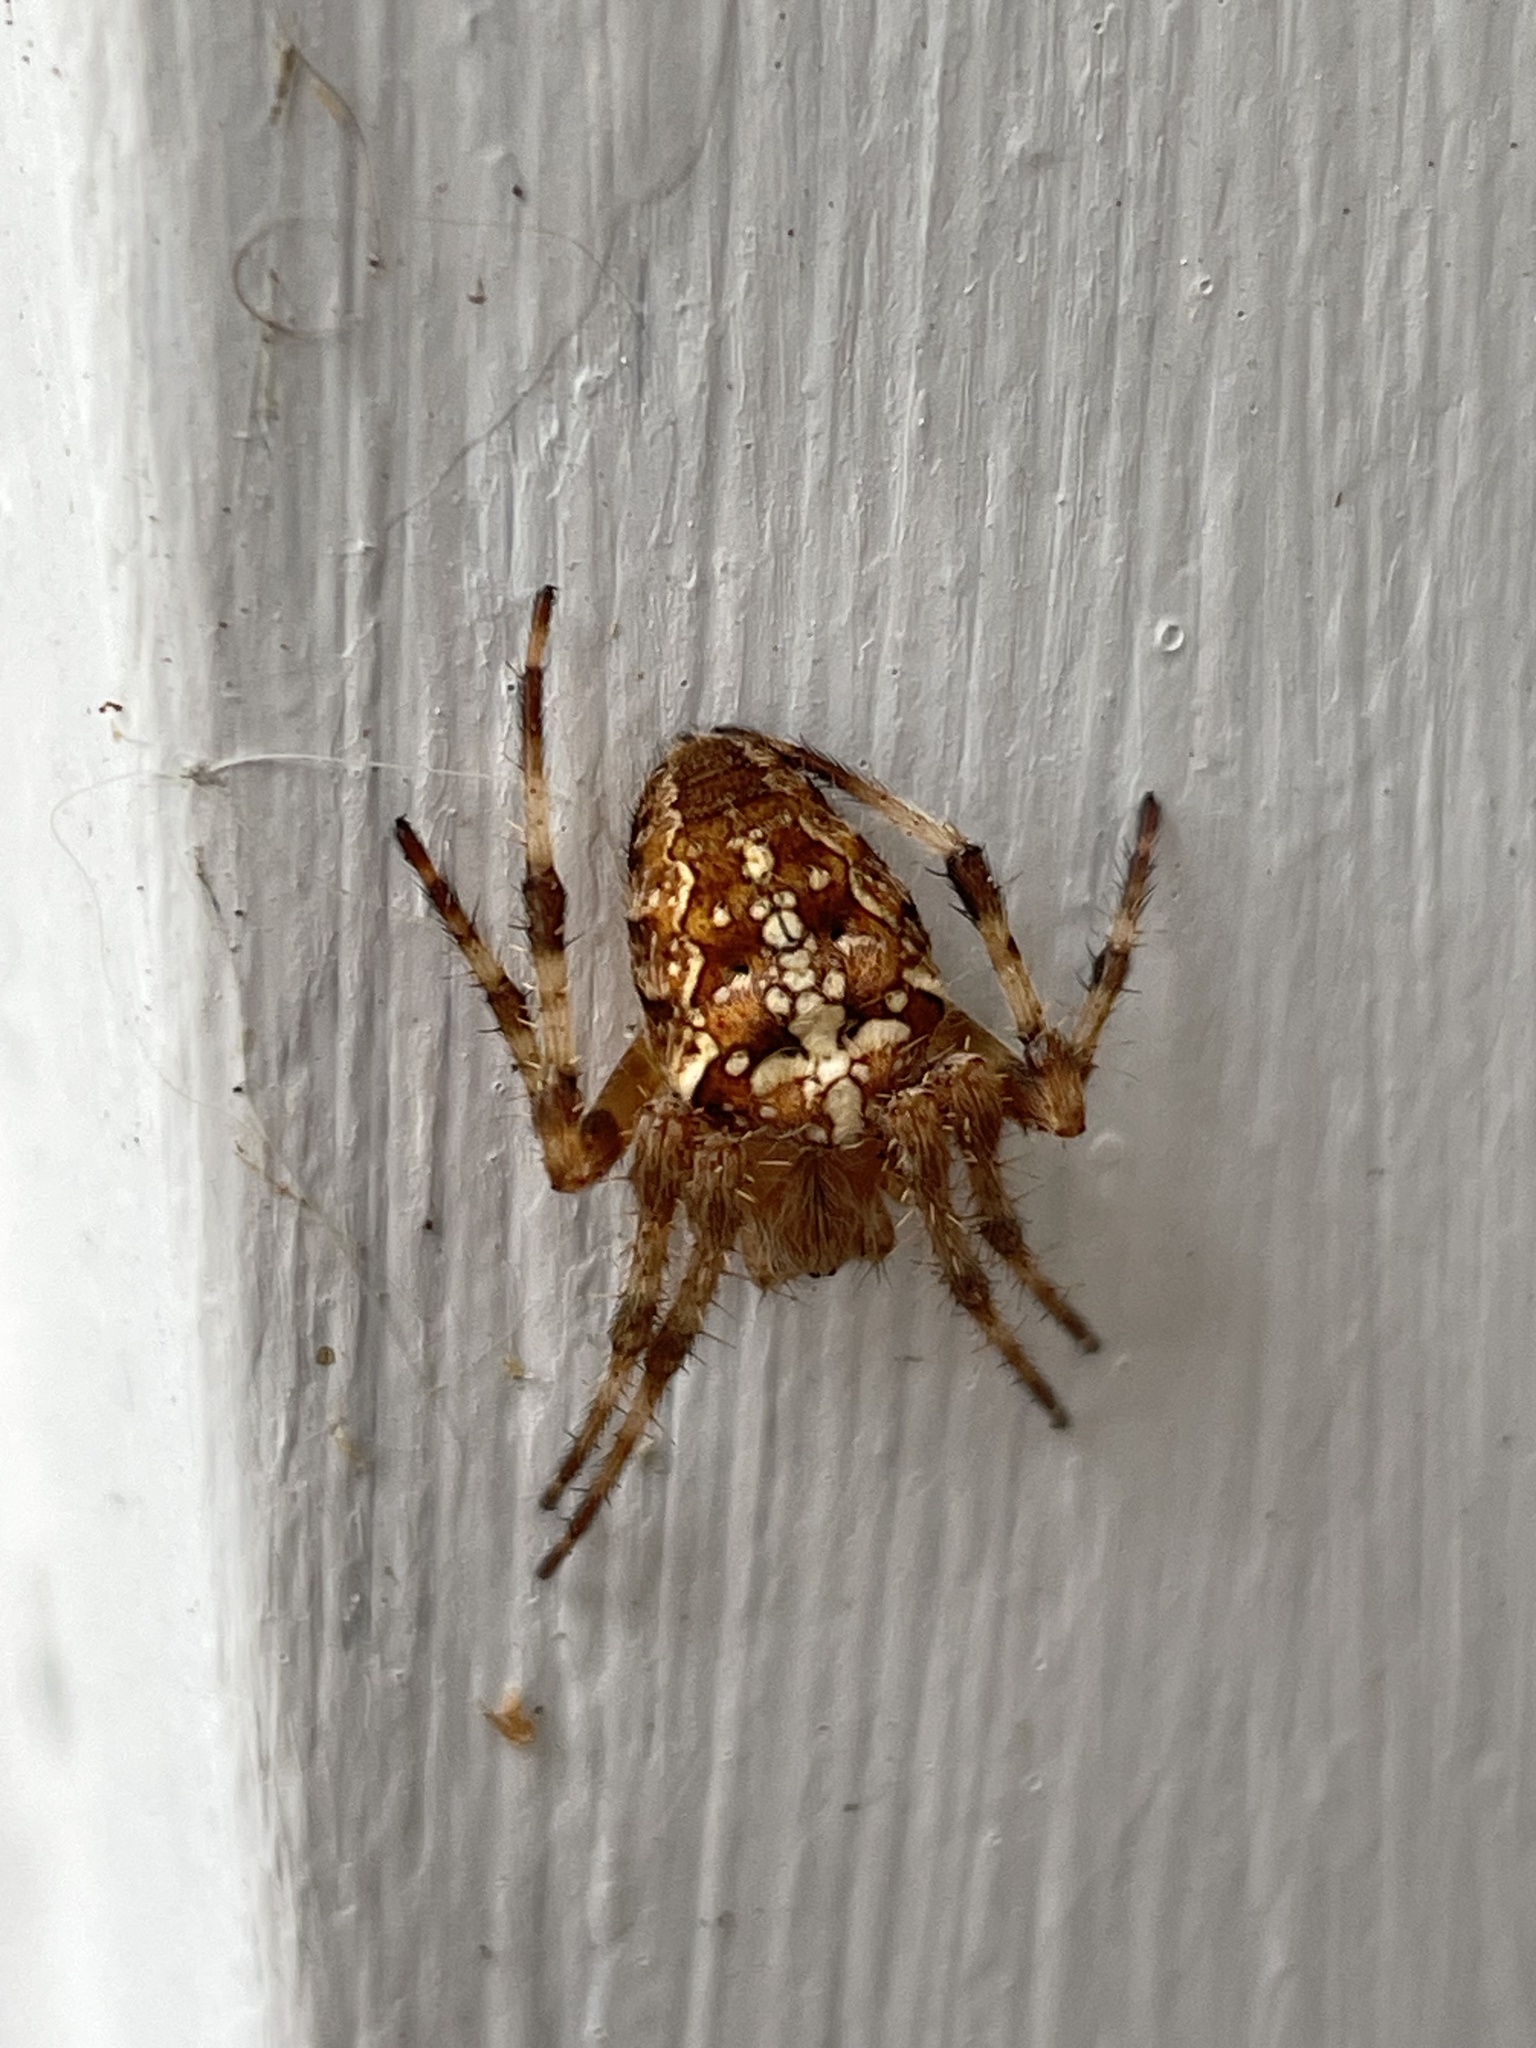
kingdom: Animalia
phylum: Arthropoda
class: Arachnida
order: Araneae
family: Araneidae
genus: Araneus
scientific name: Araneus diadematus
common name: Cross orbweaver
